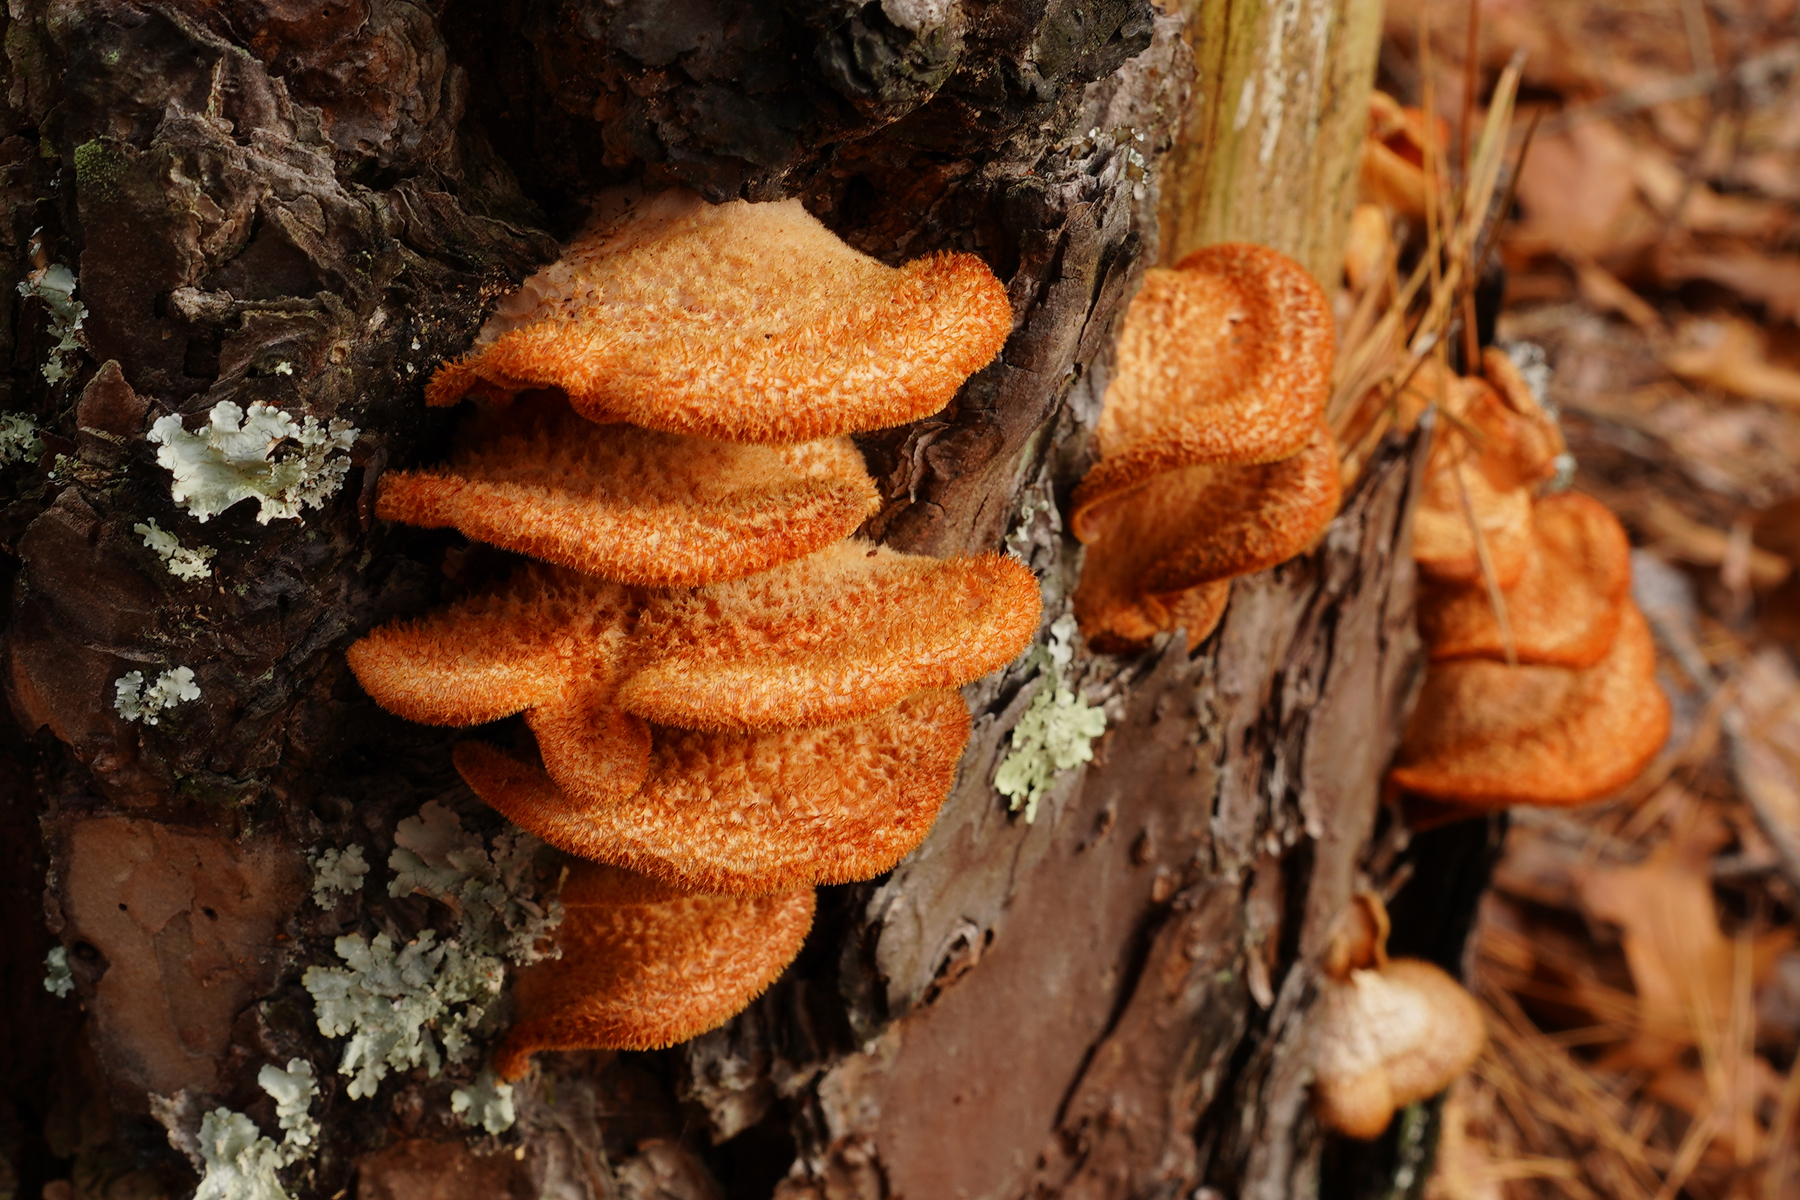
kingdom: Fungi
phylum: Basidiomycota
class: Agaricomycetes
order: Agaricales
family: Phyllotopsidaceae
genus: Phyllotopsis
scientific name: Phyllotopsis nidulans
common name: Orange mock oyster
